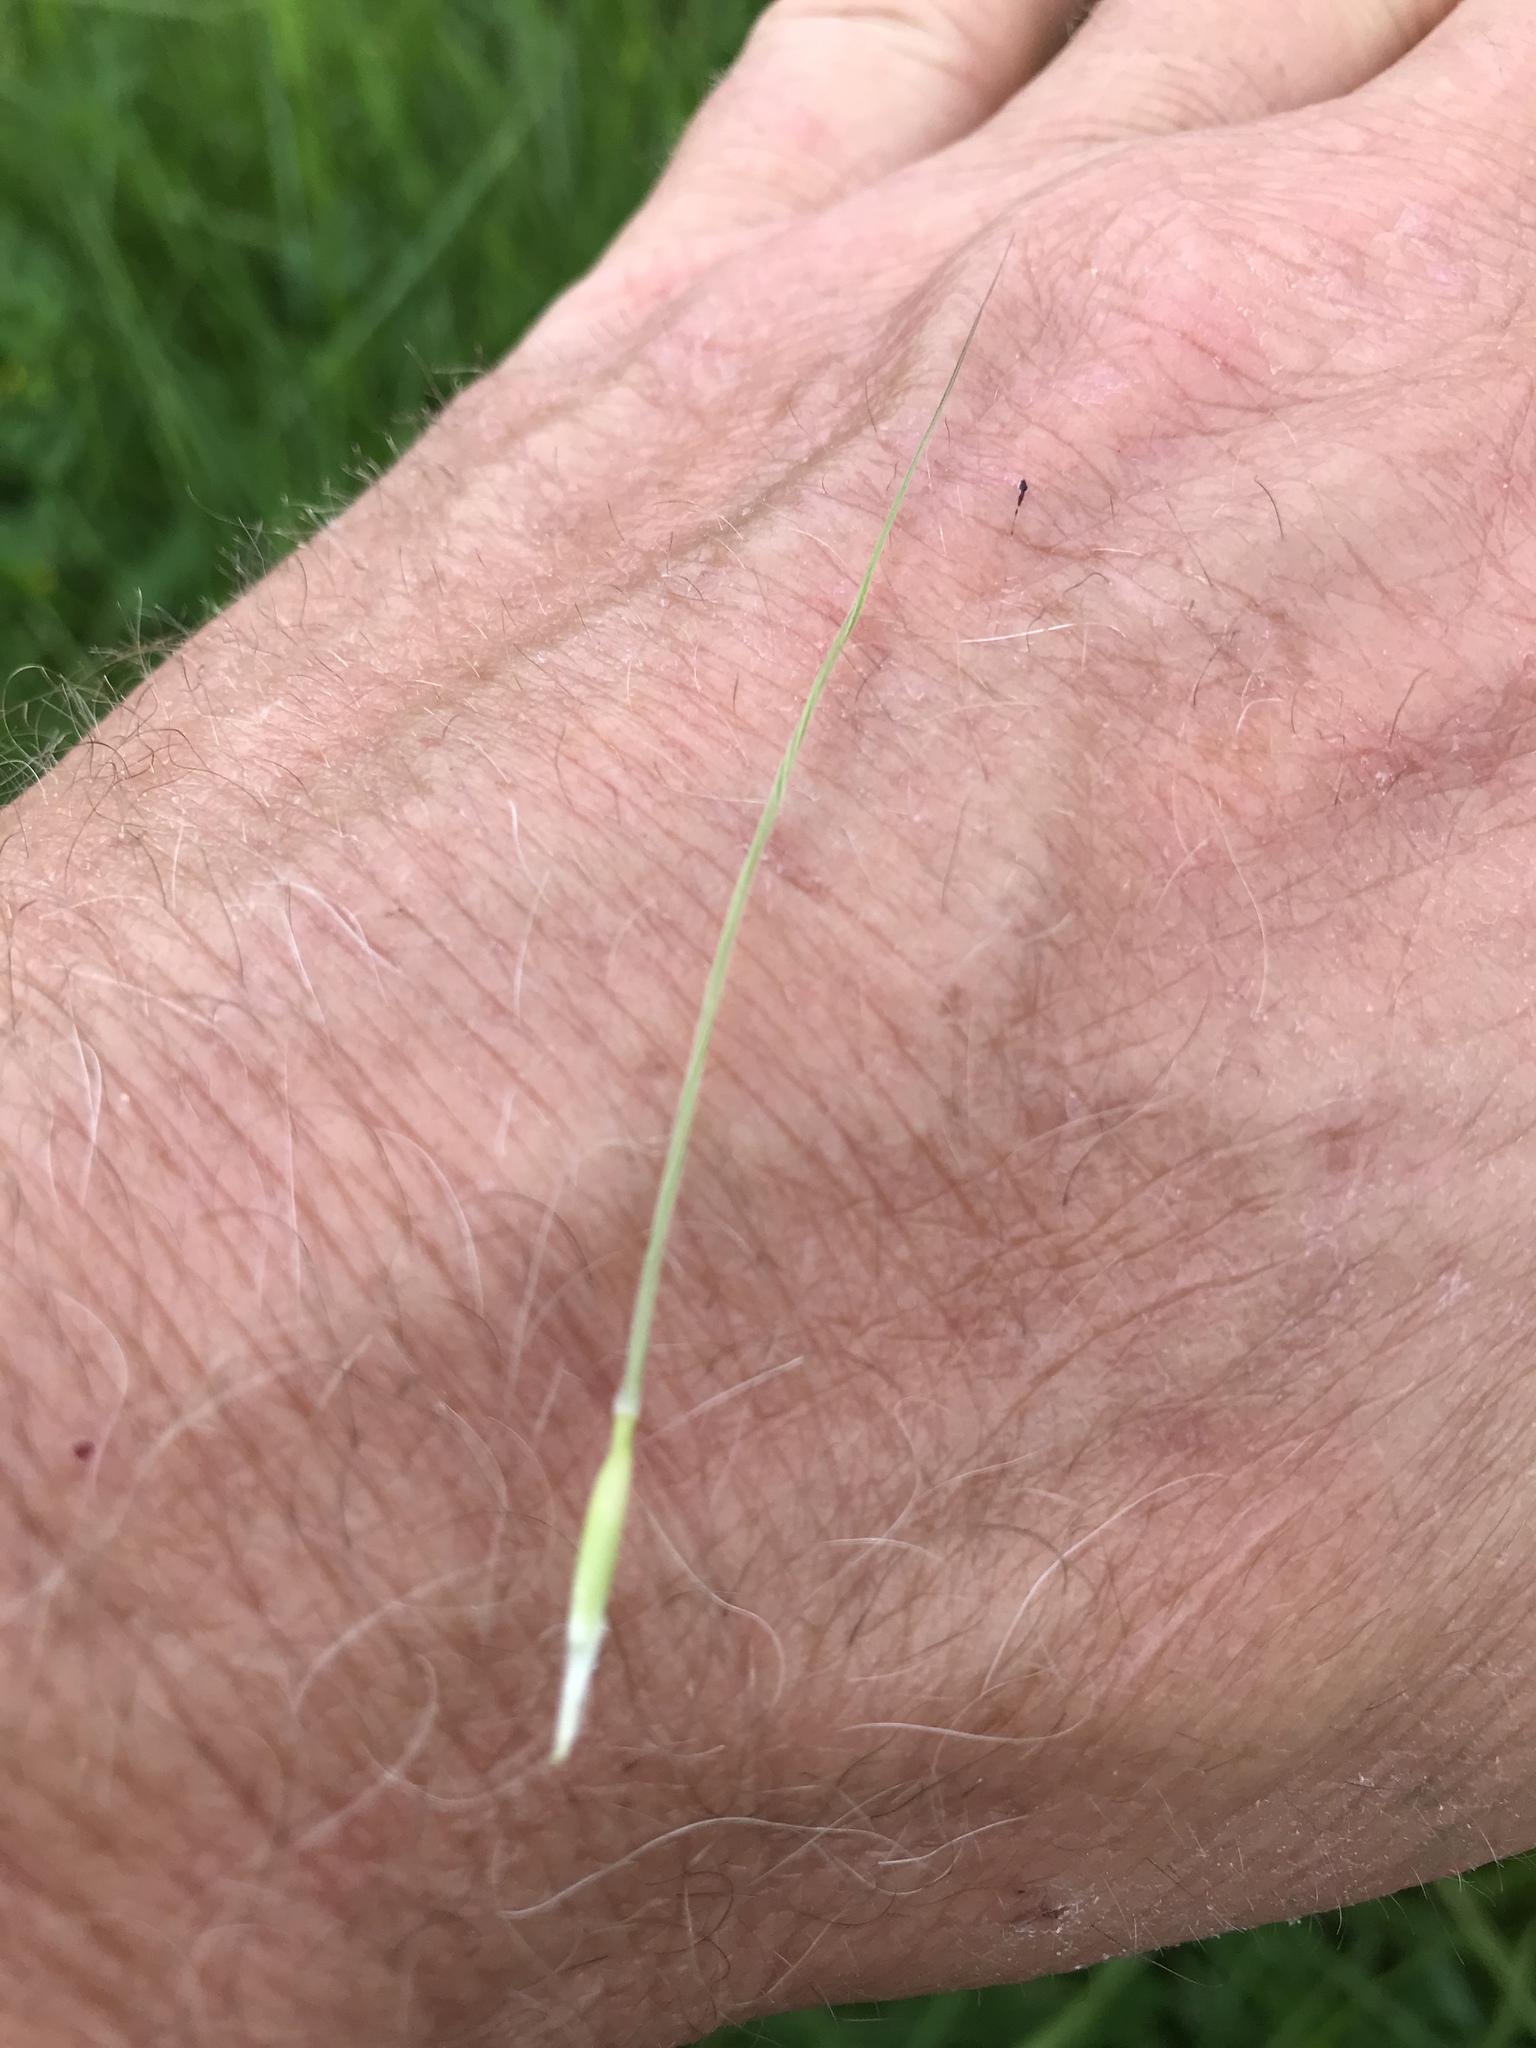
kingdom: Plantae
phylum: Tracheophyta
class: Liliopsida
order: Poales
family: Poaceae
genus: Nassella
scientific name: Nassella leucotricha
